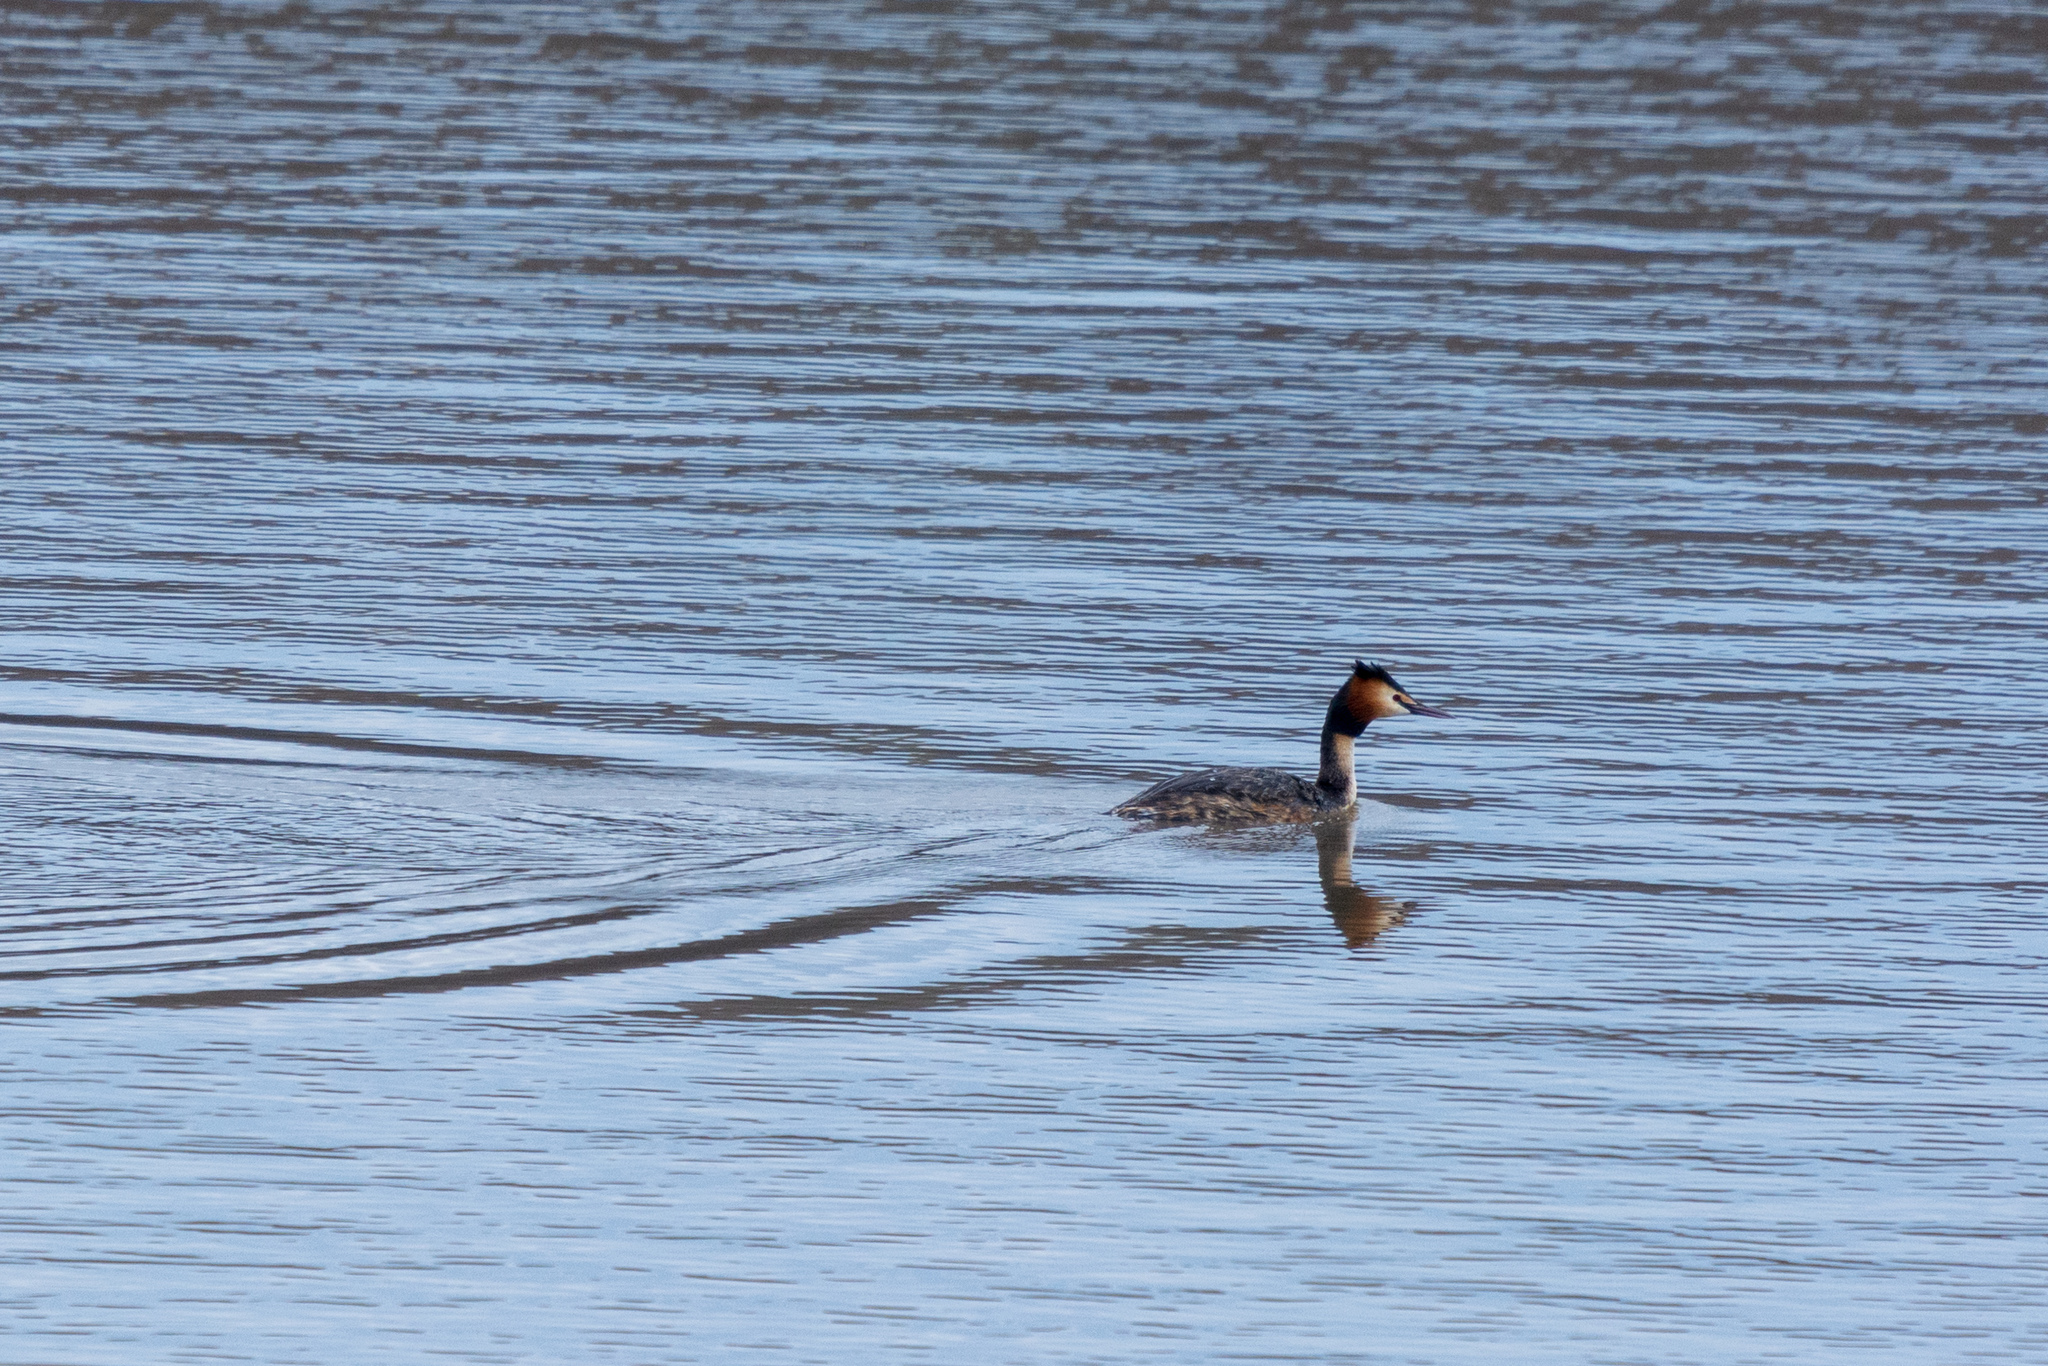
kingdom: Animalia
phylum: Chordata
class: Aves
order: Podicipediformes
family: Podicipedidae
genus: Podiceps
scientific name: Podiceps cristatus
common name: Great crested grebe
